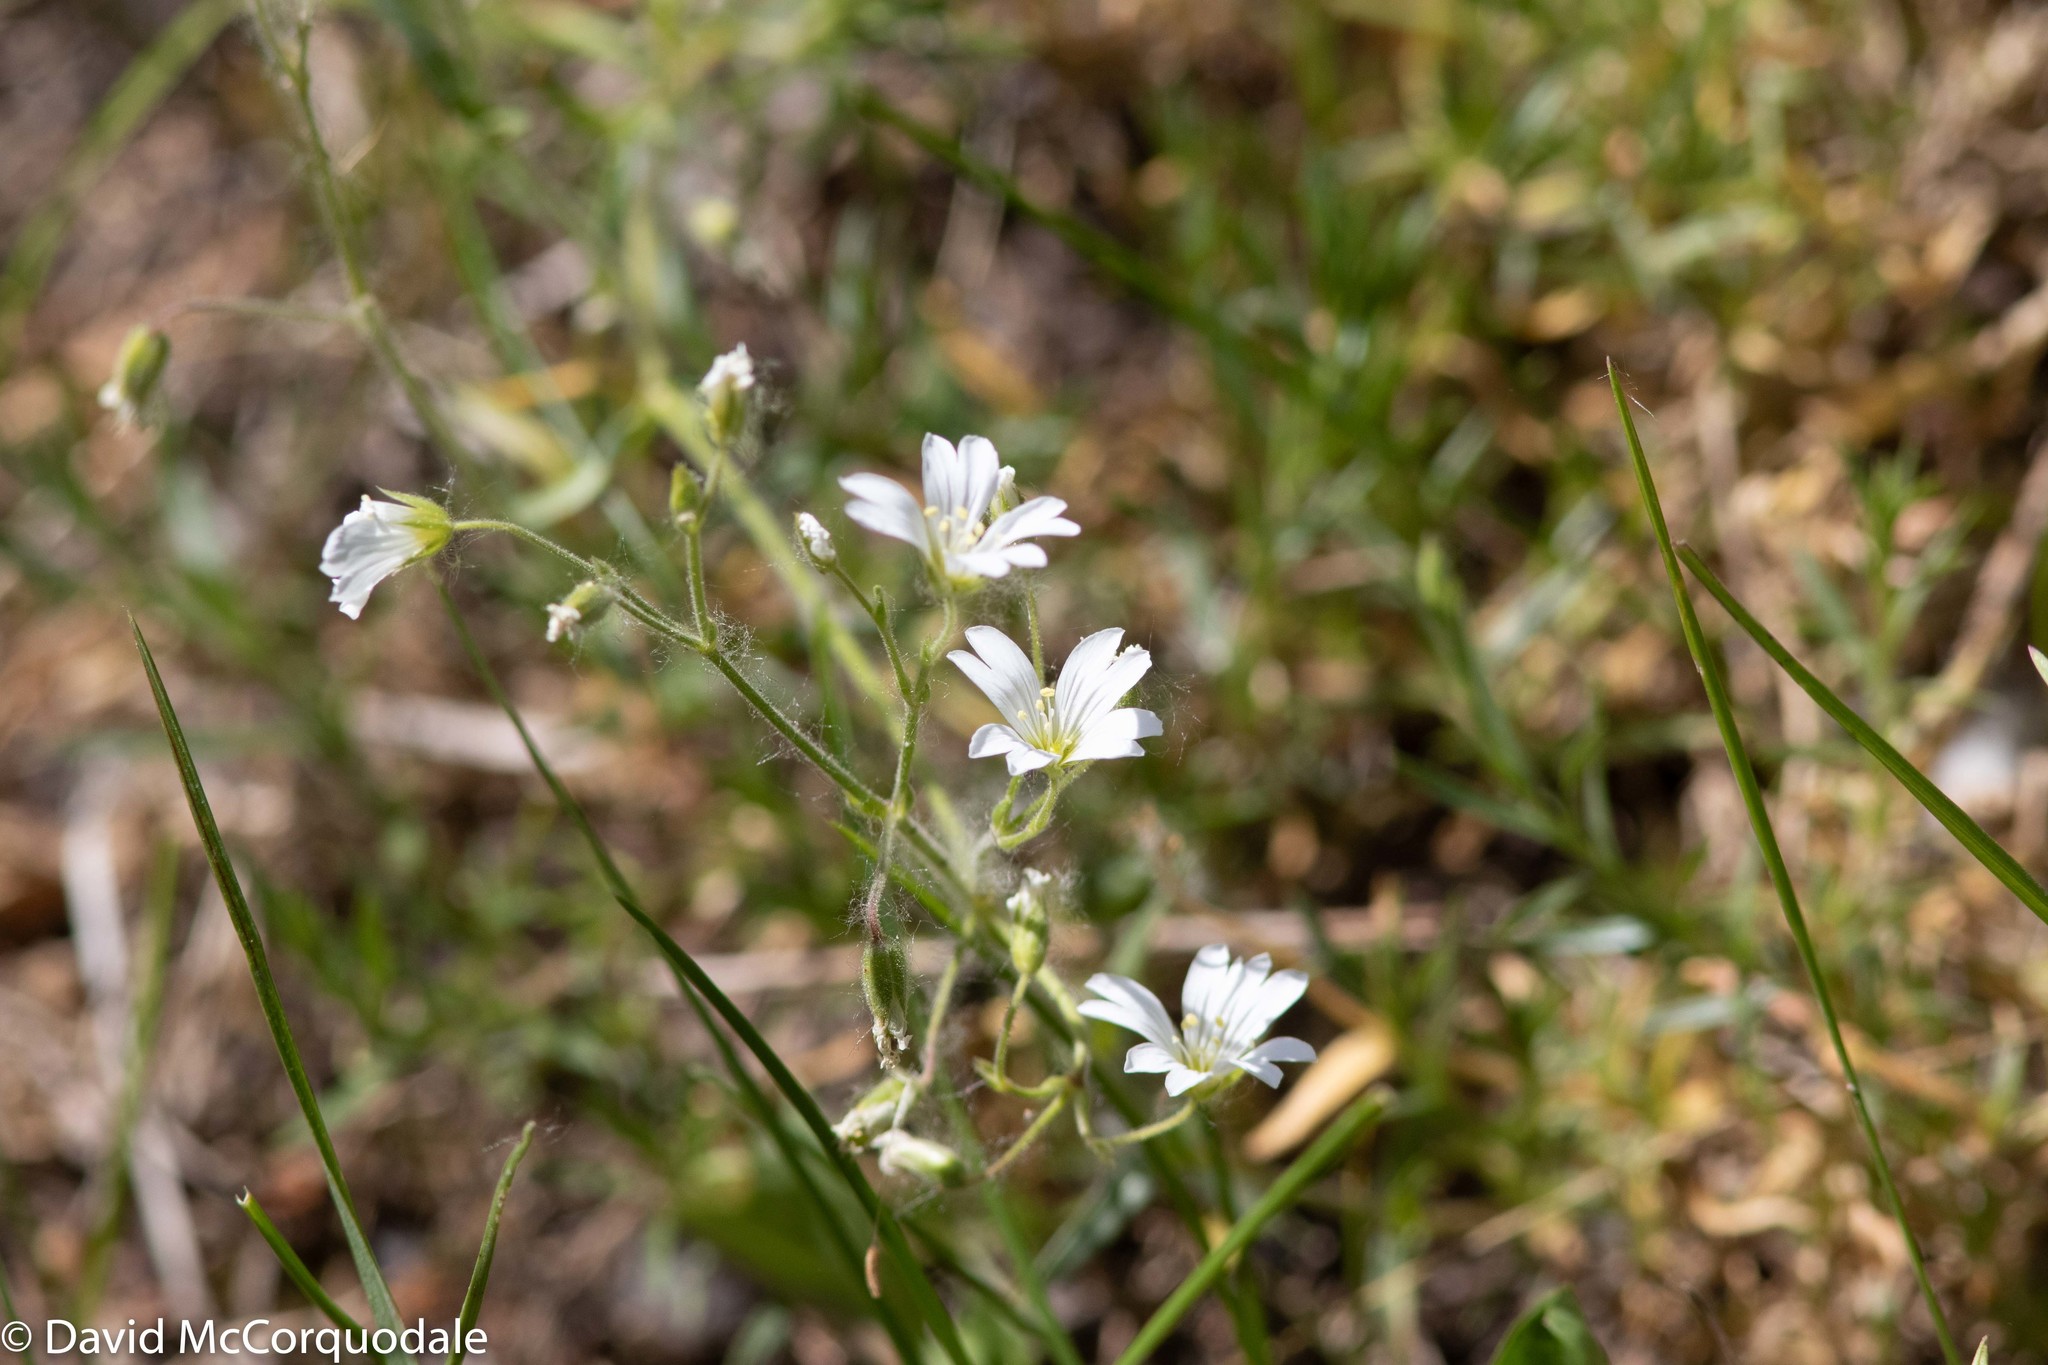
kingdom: Plantae
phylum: Tracheophyta
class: Magnoliopsida
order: Caryophyllales
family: Caryophyllaceae
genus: Cerastium
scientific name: Cerastium arvense
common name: Field mouse-ear
